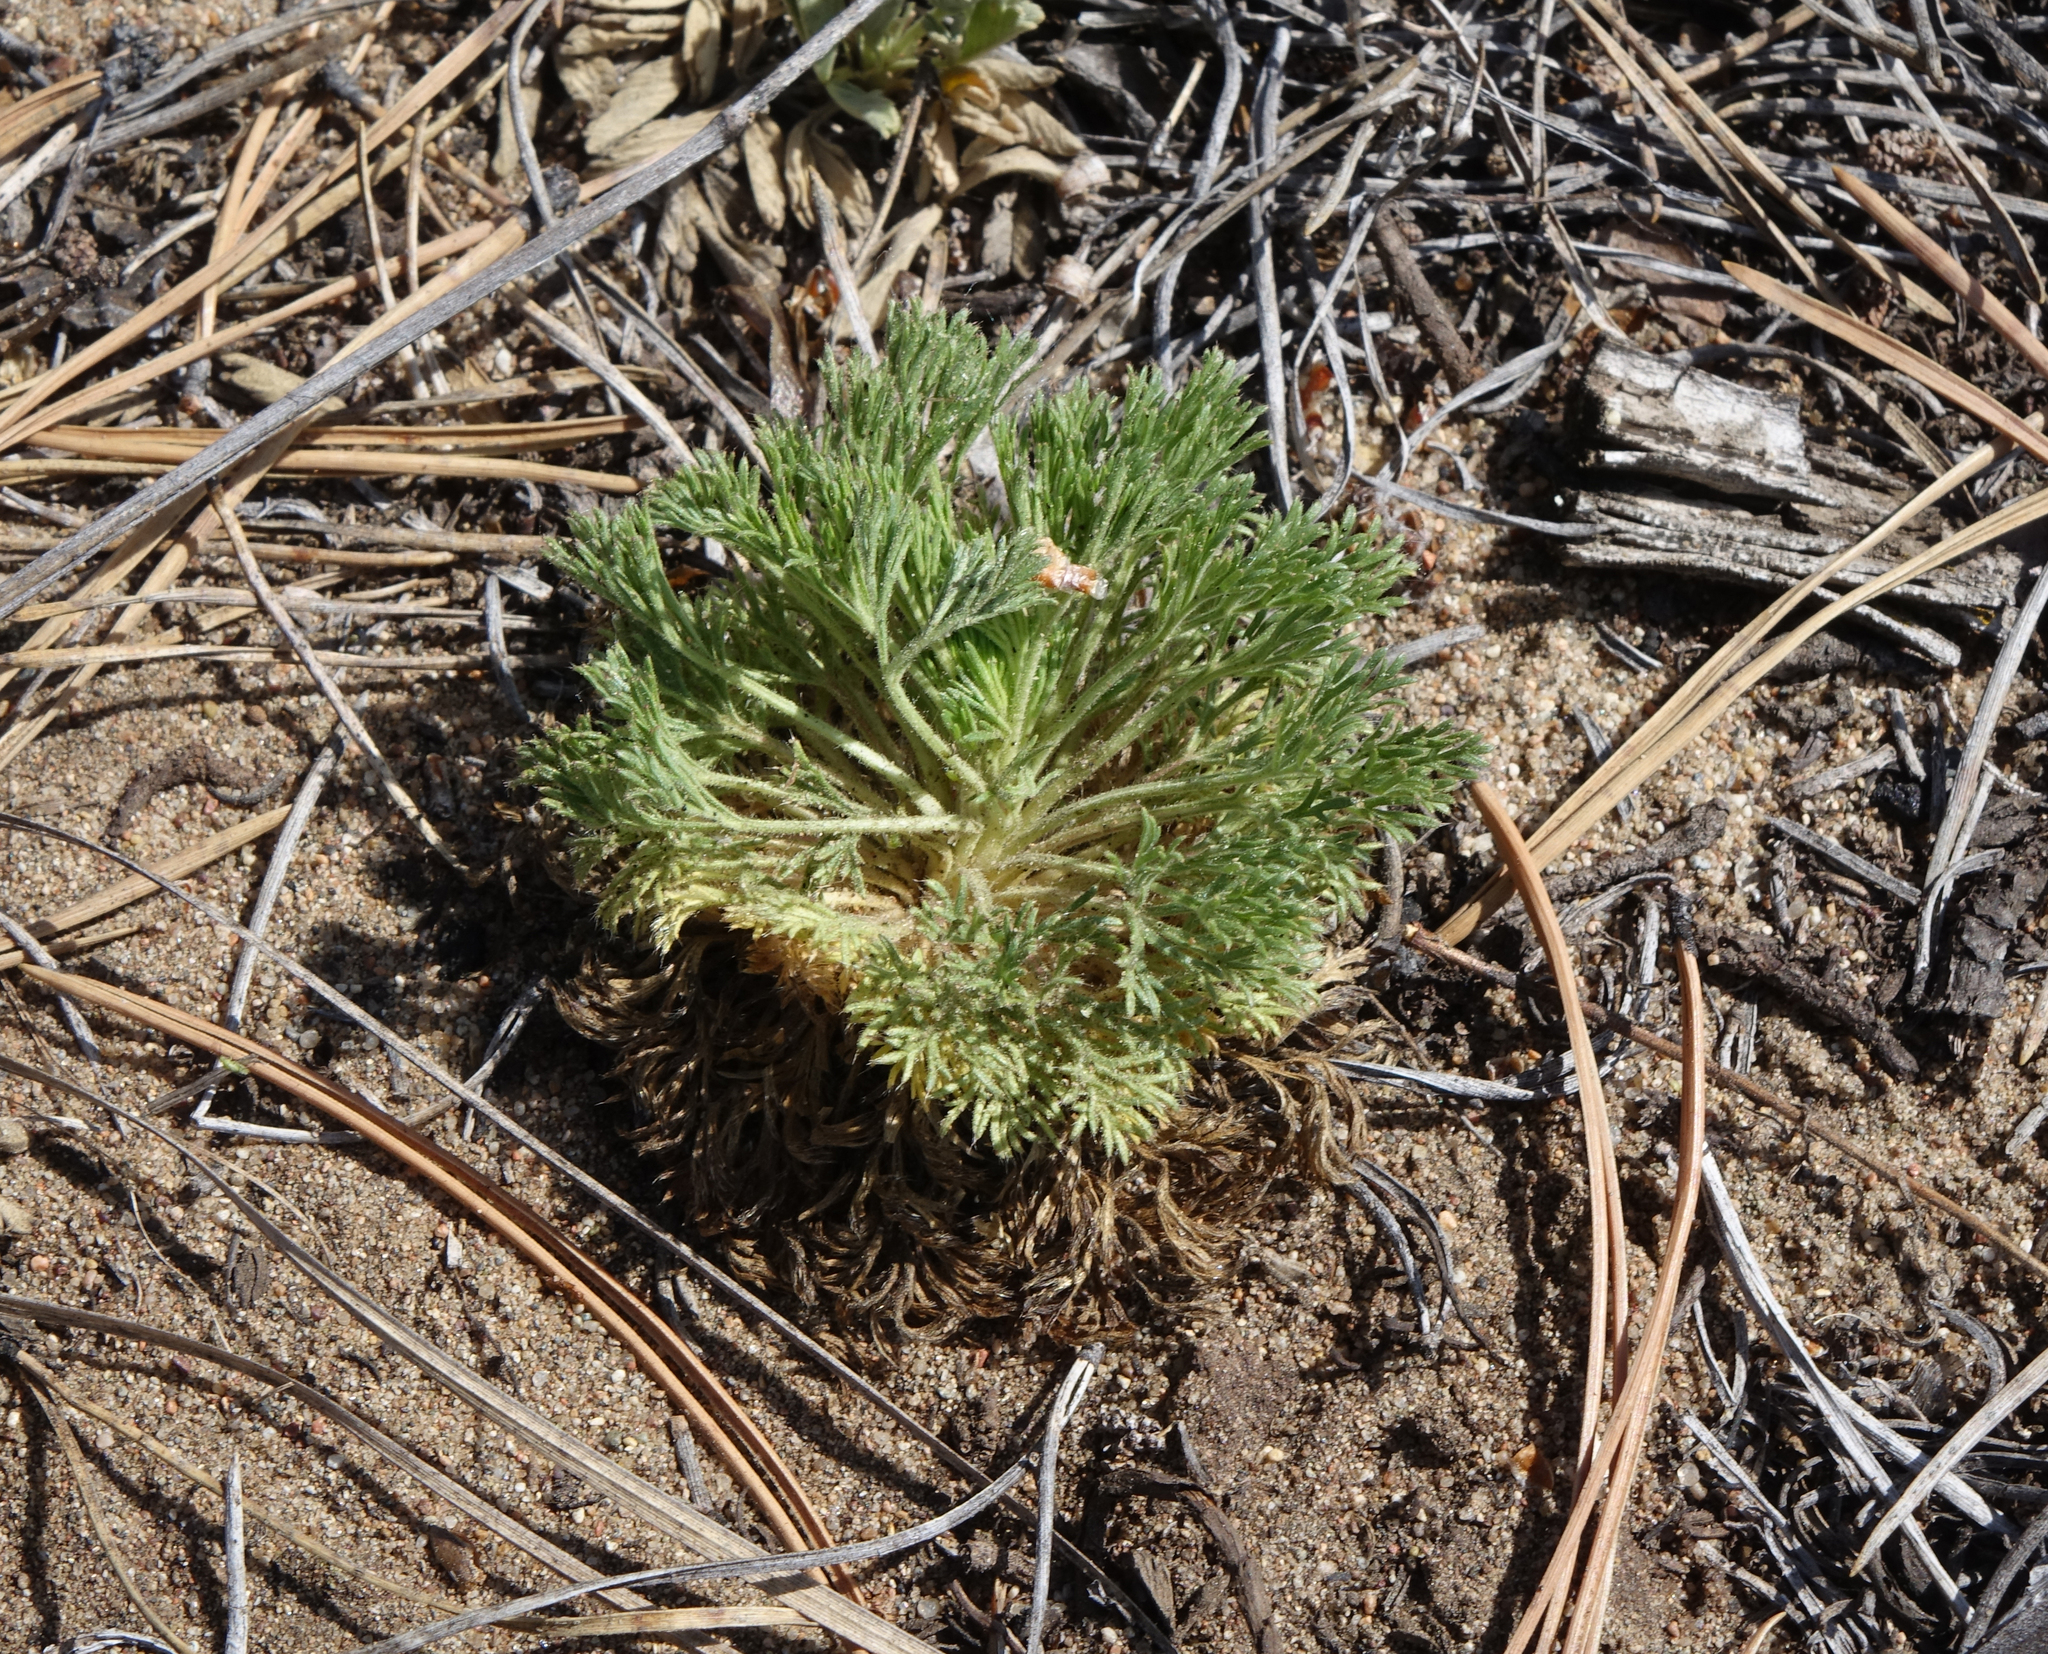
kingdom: Plantae
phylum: Tracheophyta
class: Magnoliopsida
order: Rosales
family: Rosaceae
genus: Chamaerhodos
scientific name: Chamaerhodos erecta
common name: American chamaerhodos
